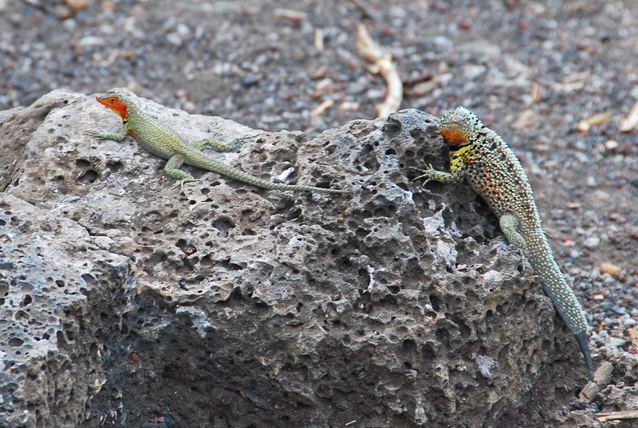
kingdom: Animalia
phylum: Chordata
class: Squamata
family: Tropiduridae
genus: Microlophus
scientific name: Microlophus indefatigabilis
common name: Galapagos lava lizard
